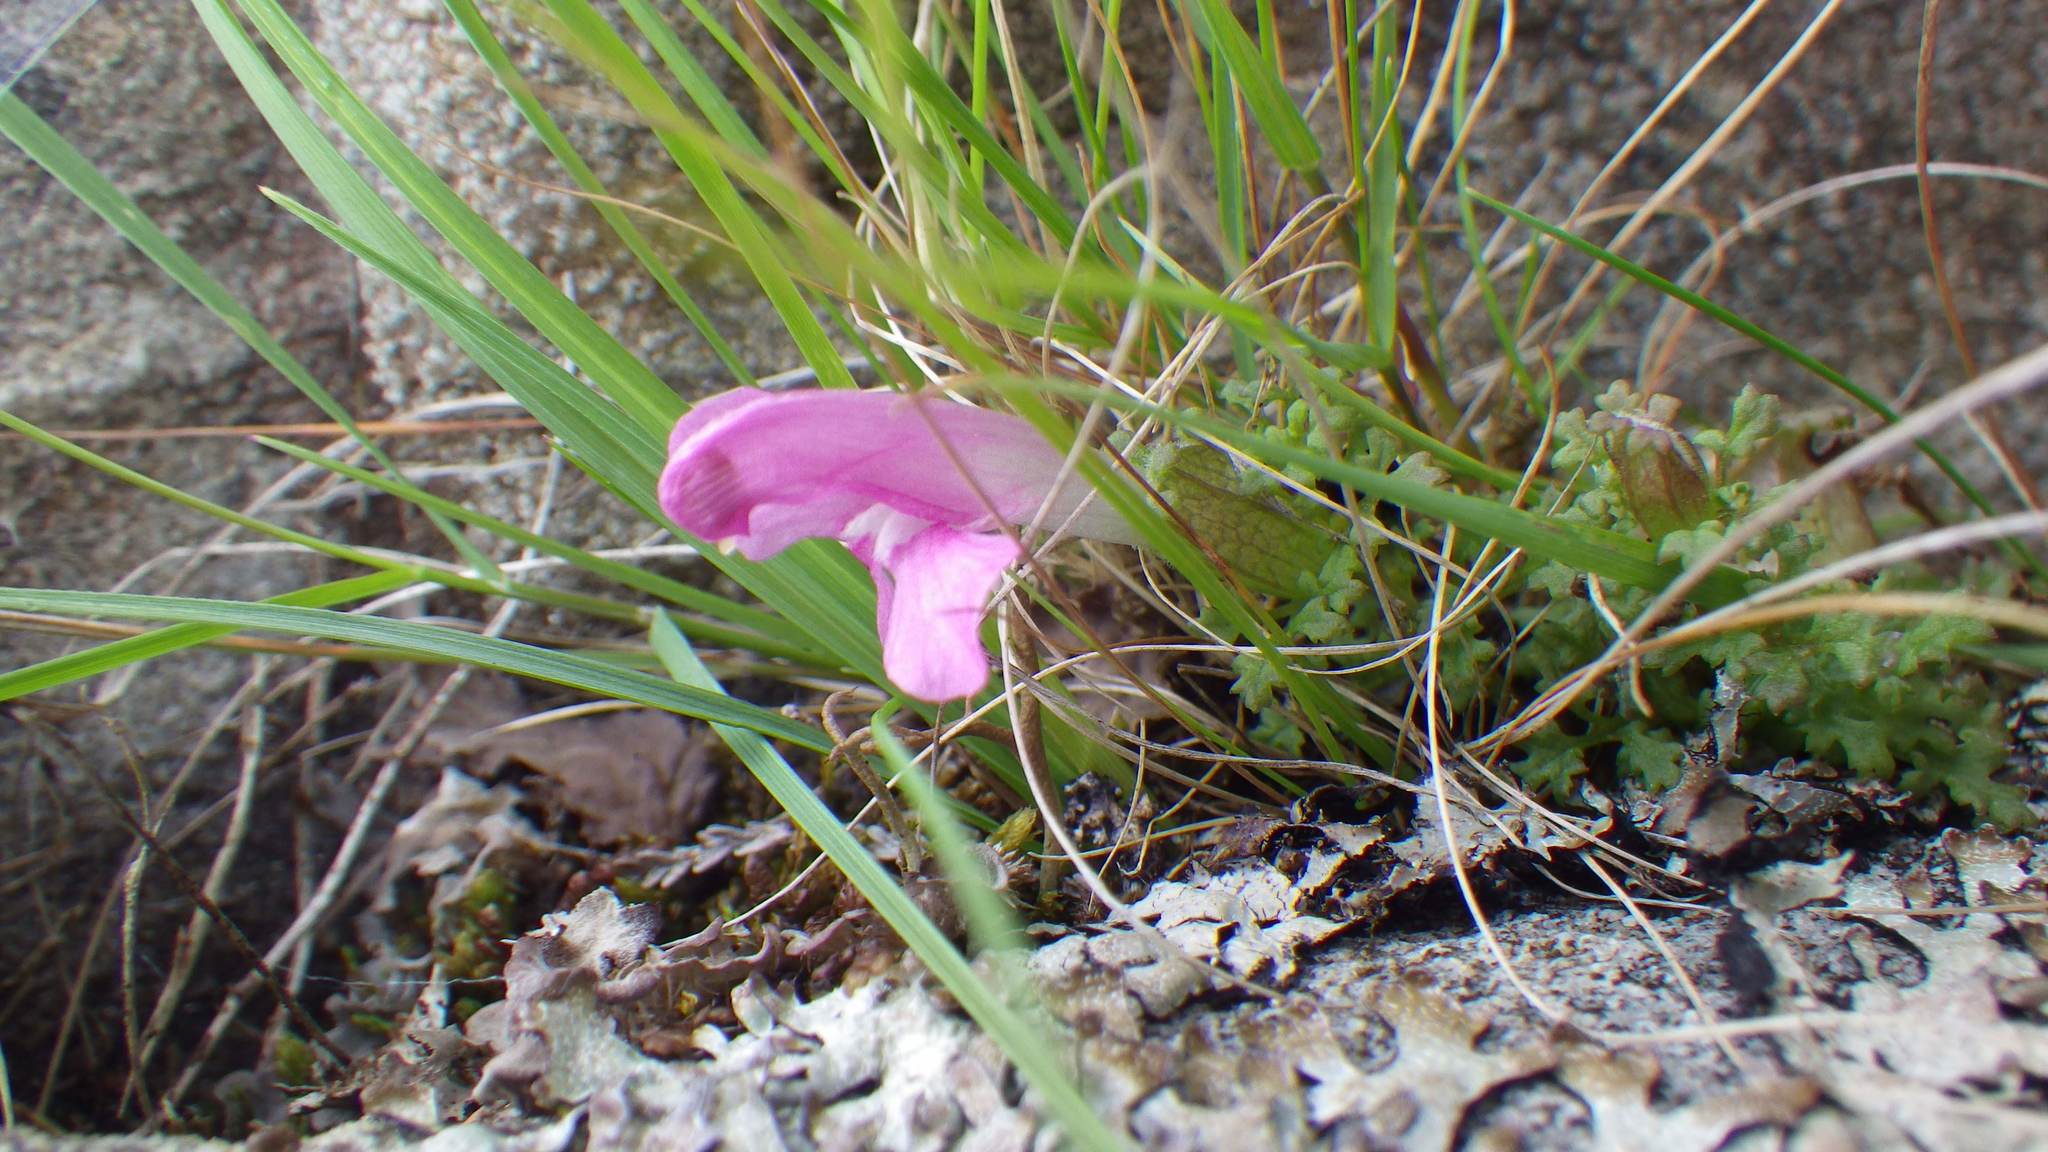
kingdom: Plantae
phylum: Tracheophyta
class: Magnoliopsida
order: Lamiales
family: Orobanchaceae
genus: Pedicularis
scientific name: Pedicularis sylvatica
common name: Lousewort
